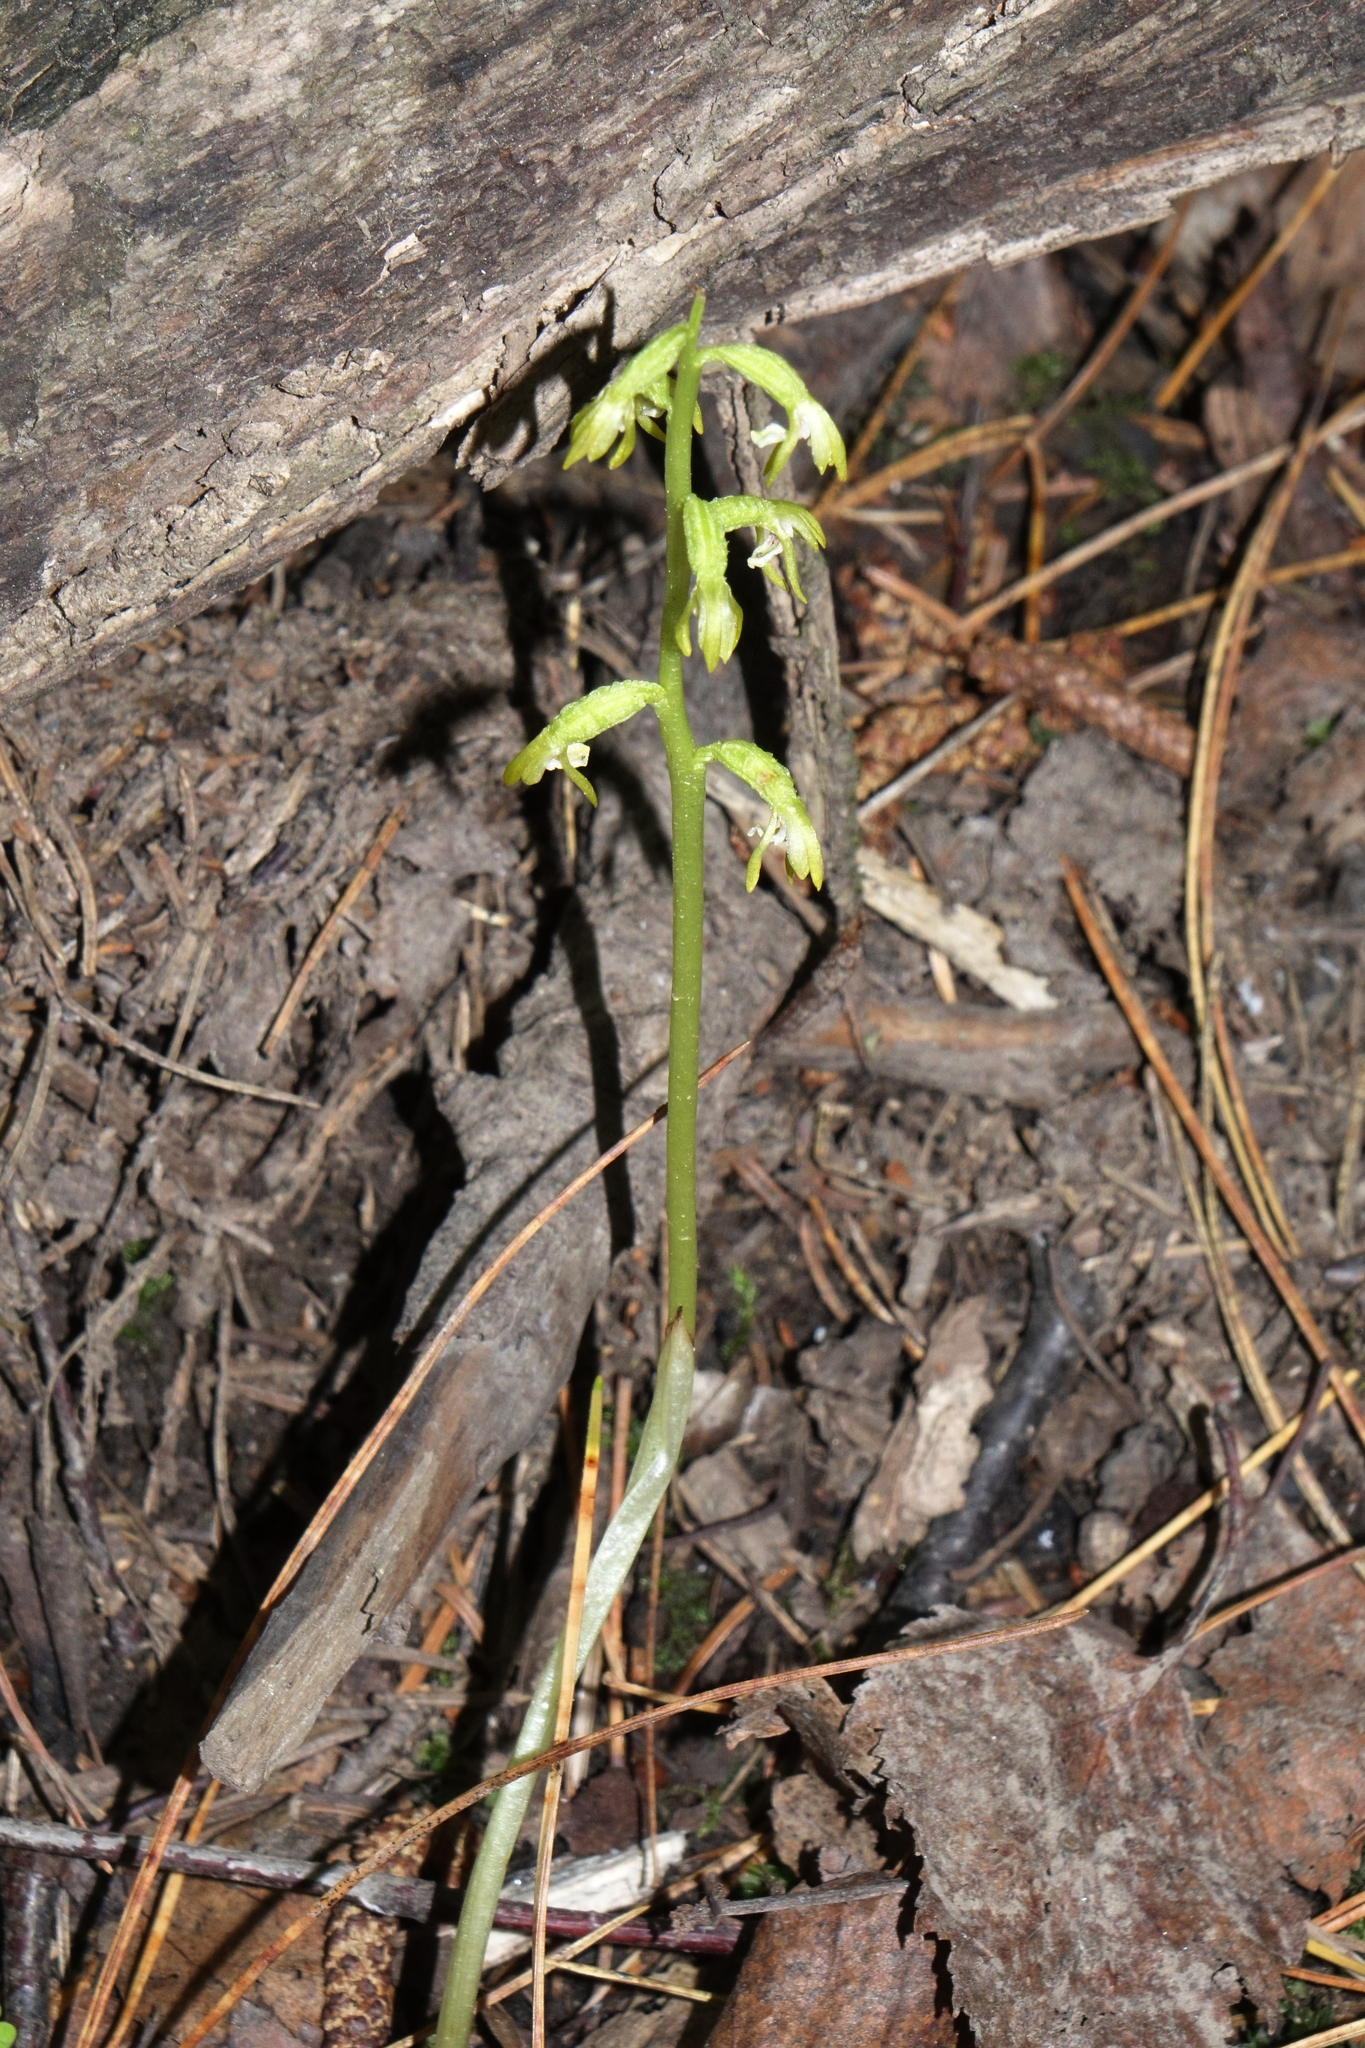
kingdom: Plantae
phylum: Tracheophyta
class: Liliopsida
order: Asparagales
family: Orchidaceae
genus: Corallorhiza
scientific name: Corallorhiza trifida
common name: Yellow coralroot
